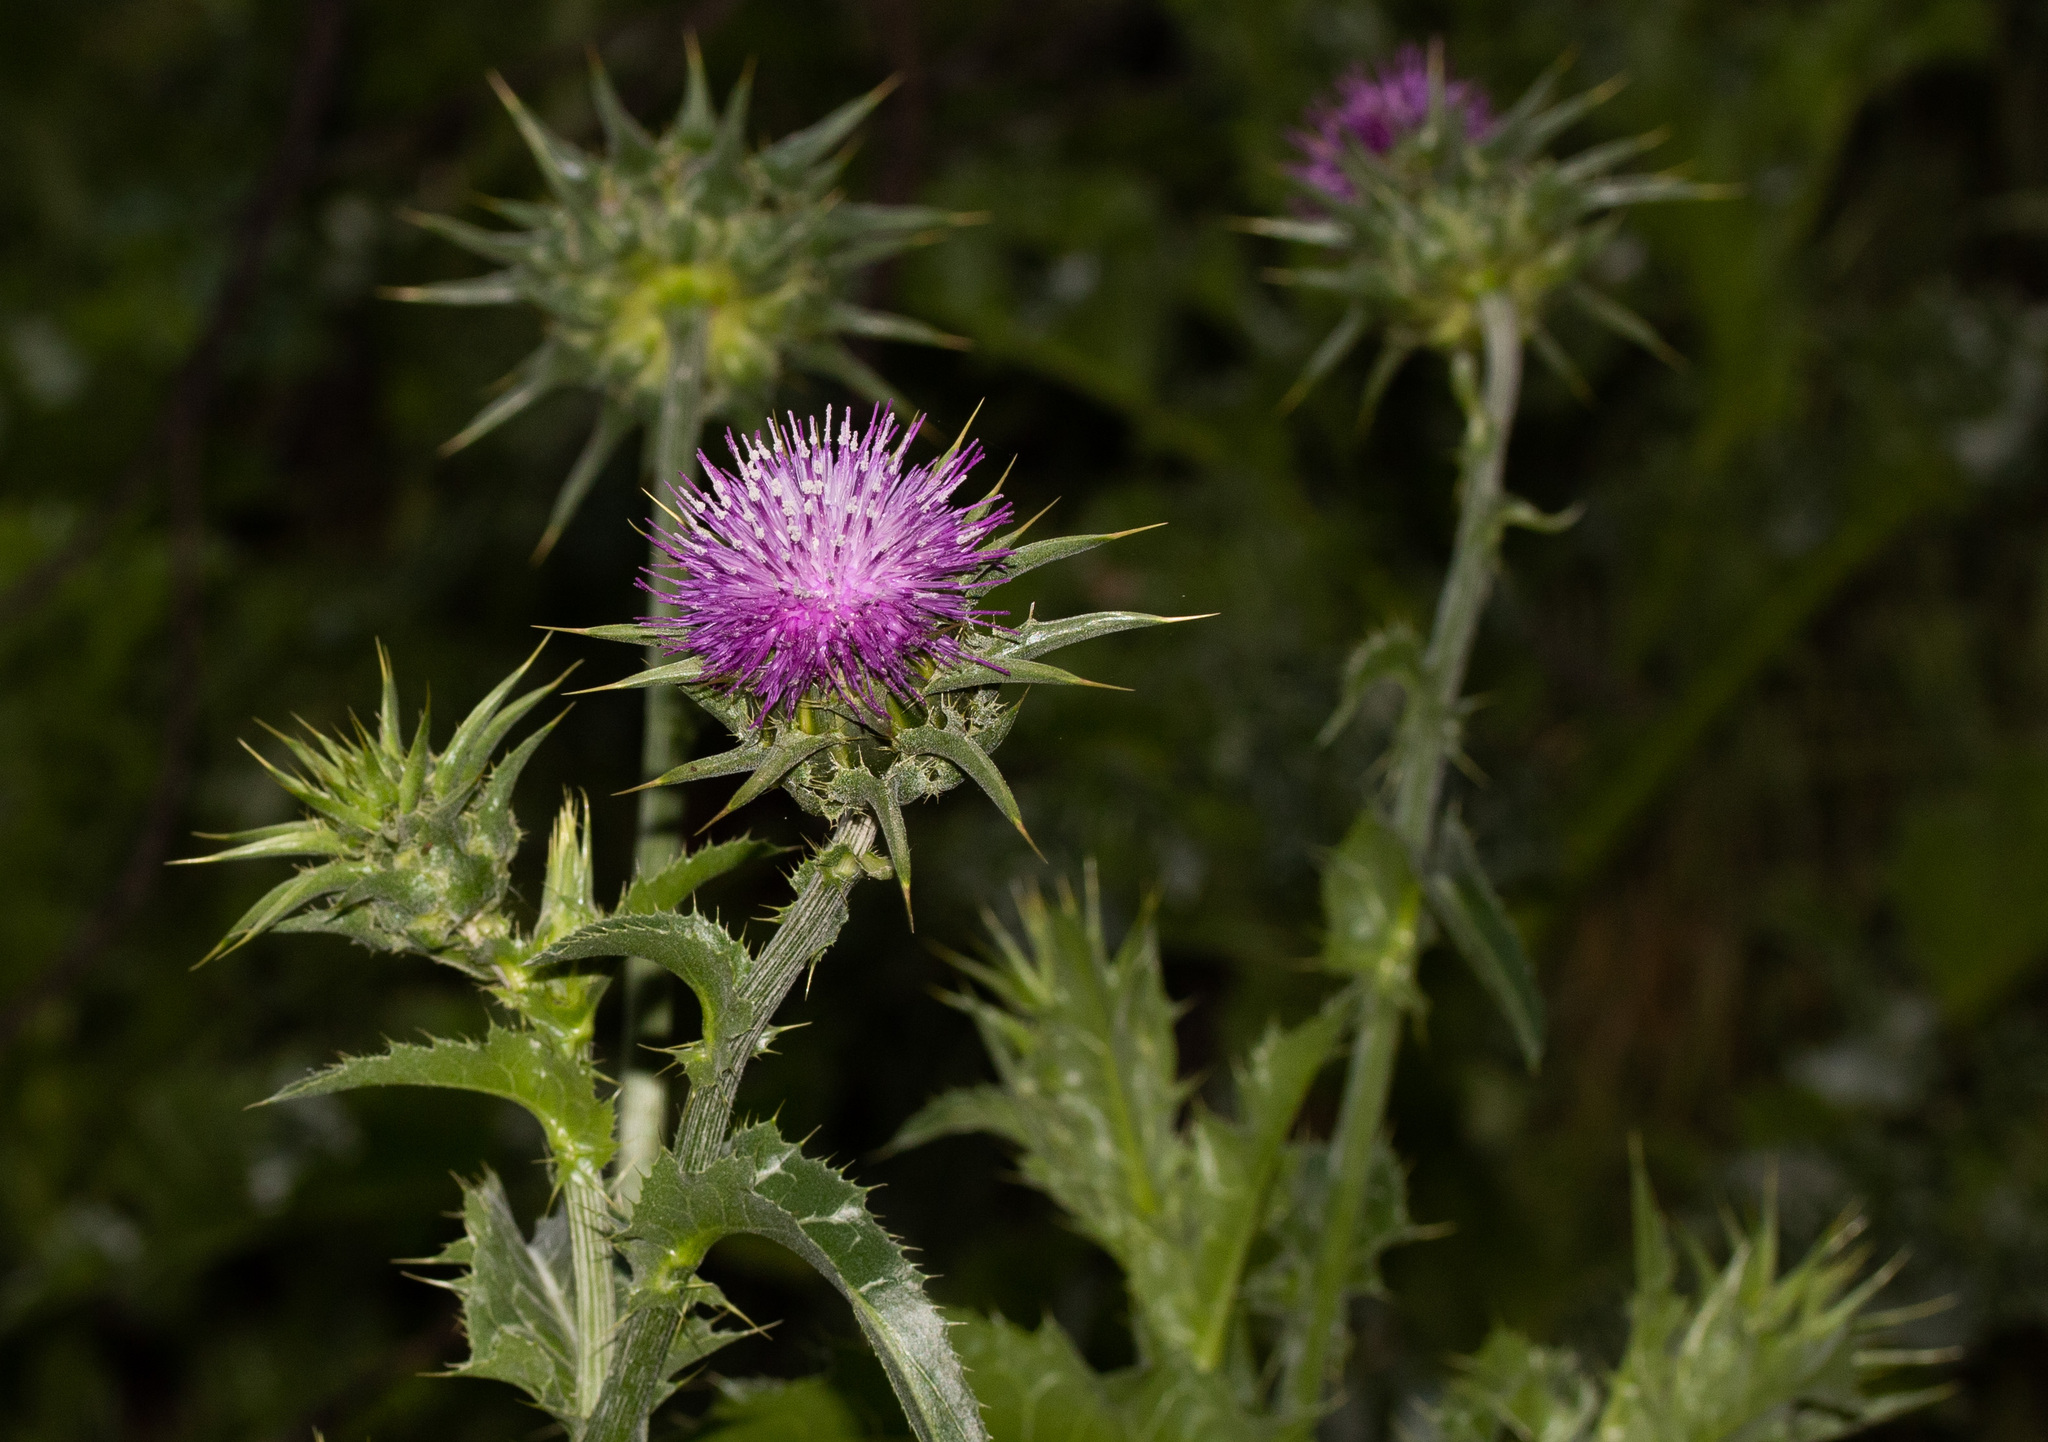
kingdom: Plantae
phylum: Tracheophyta
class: Magnoliopsida
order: Asterales
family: Asteraceae
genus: Silybum
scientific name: Silybum marianum
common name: Milk thistle
